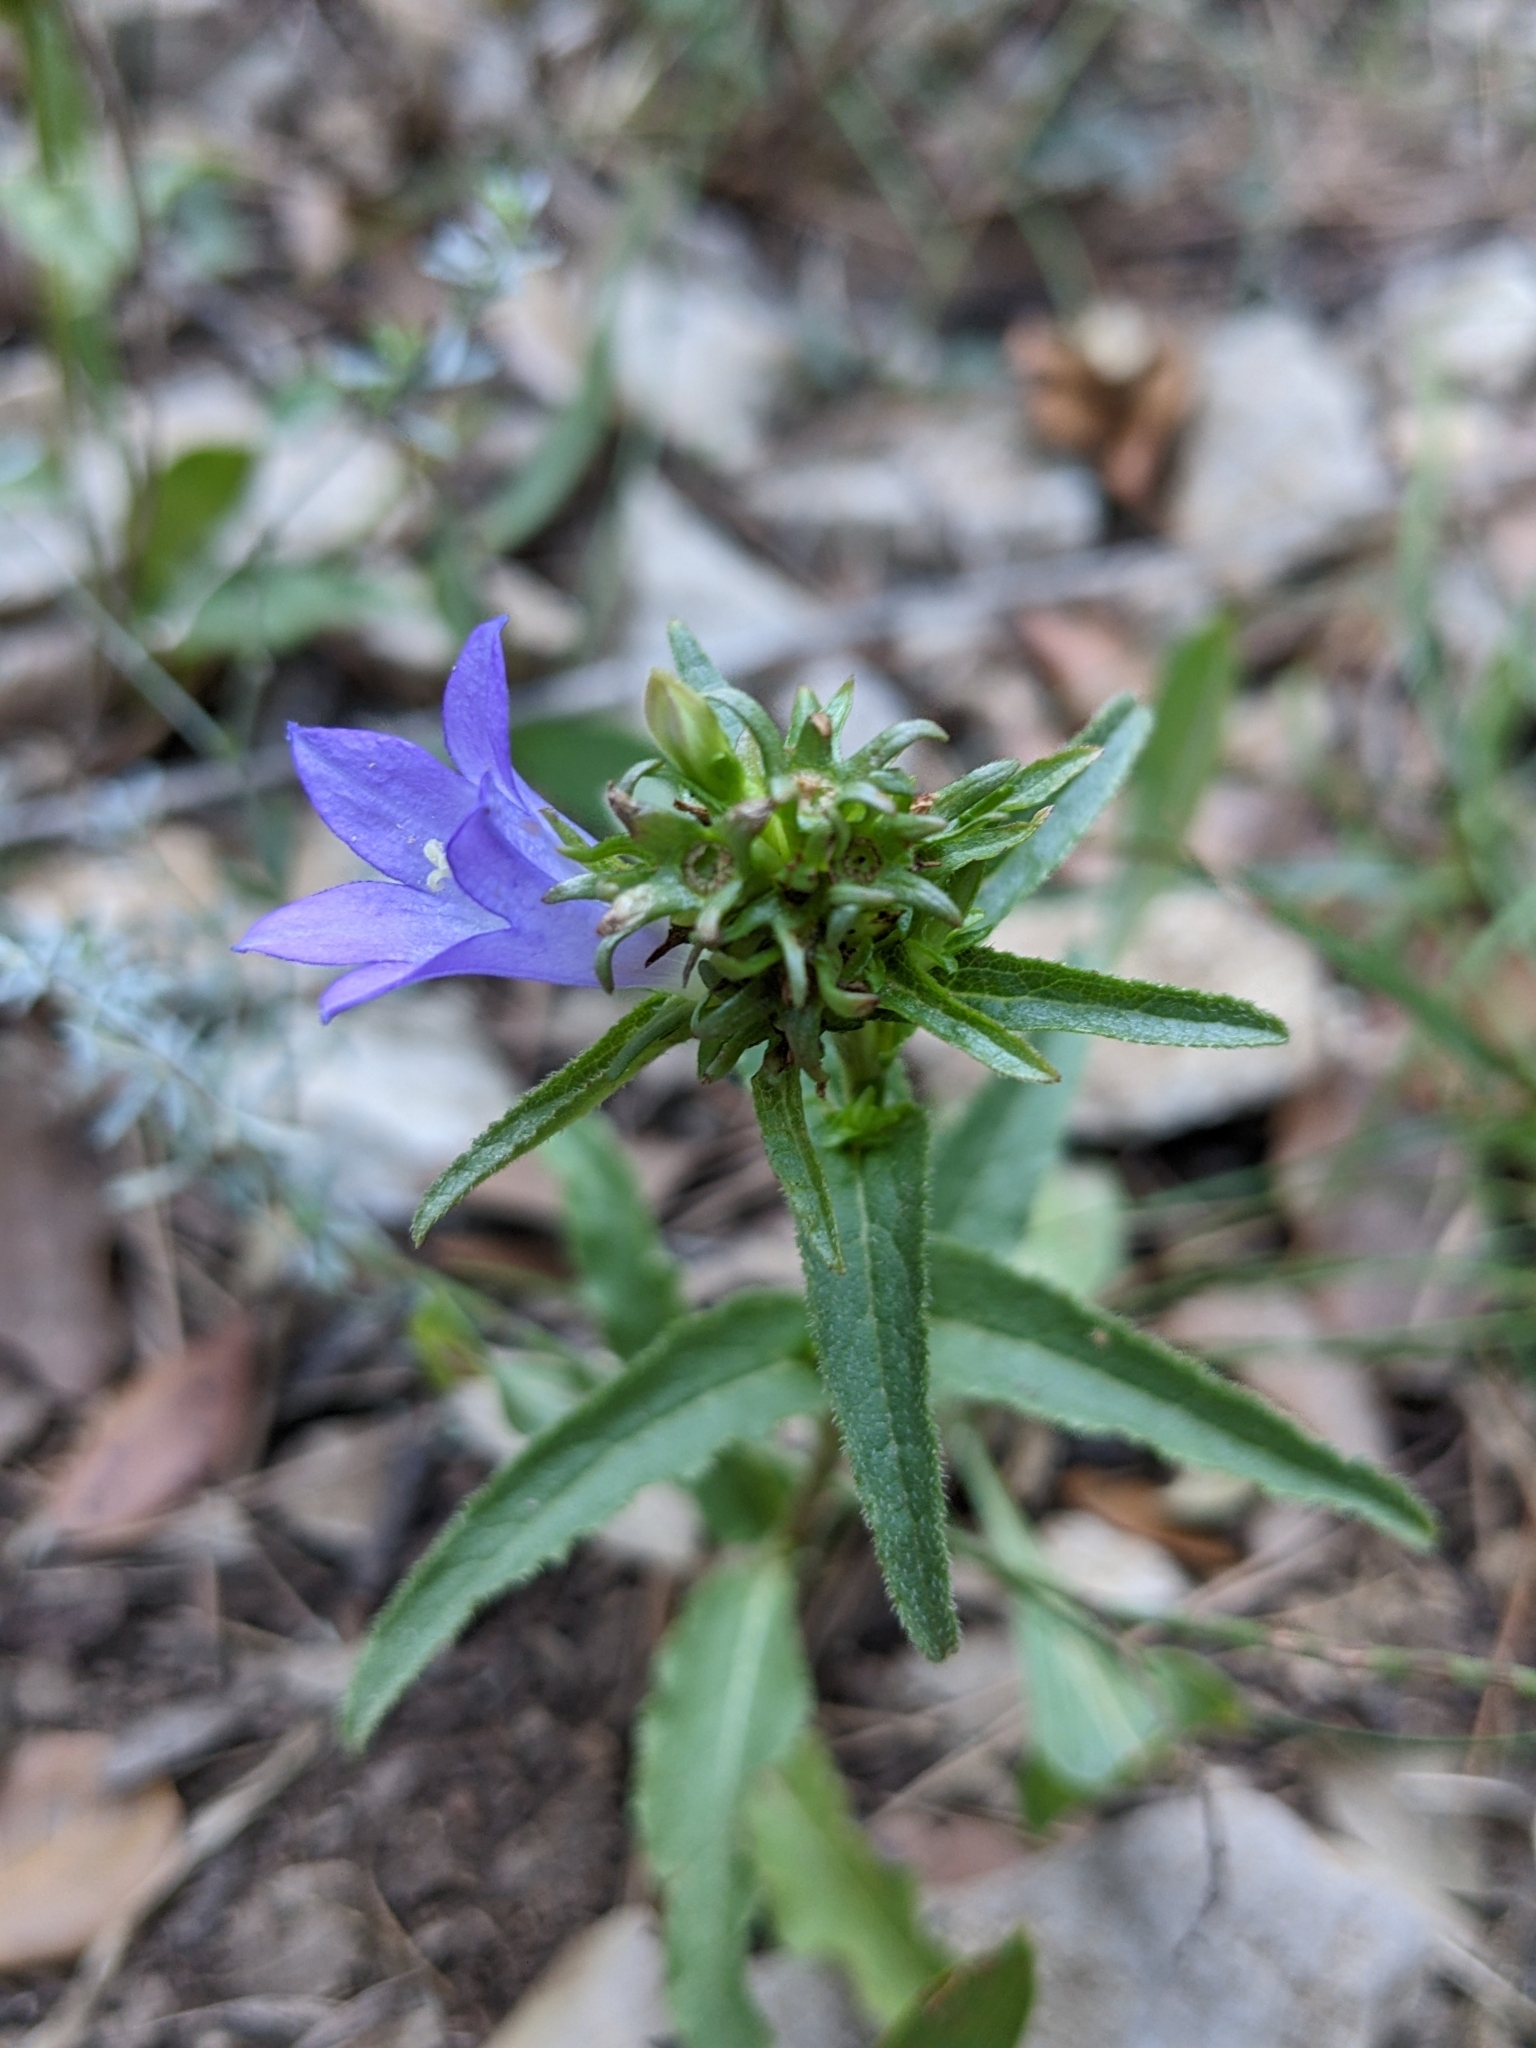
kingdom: Plantae
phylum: Tracheophyta
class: Magnoliopsida
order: Asterales
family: Campanulaceae
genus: Campanula
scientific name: Campanula glomerata
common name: Clustered bellflower
